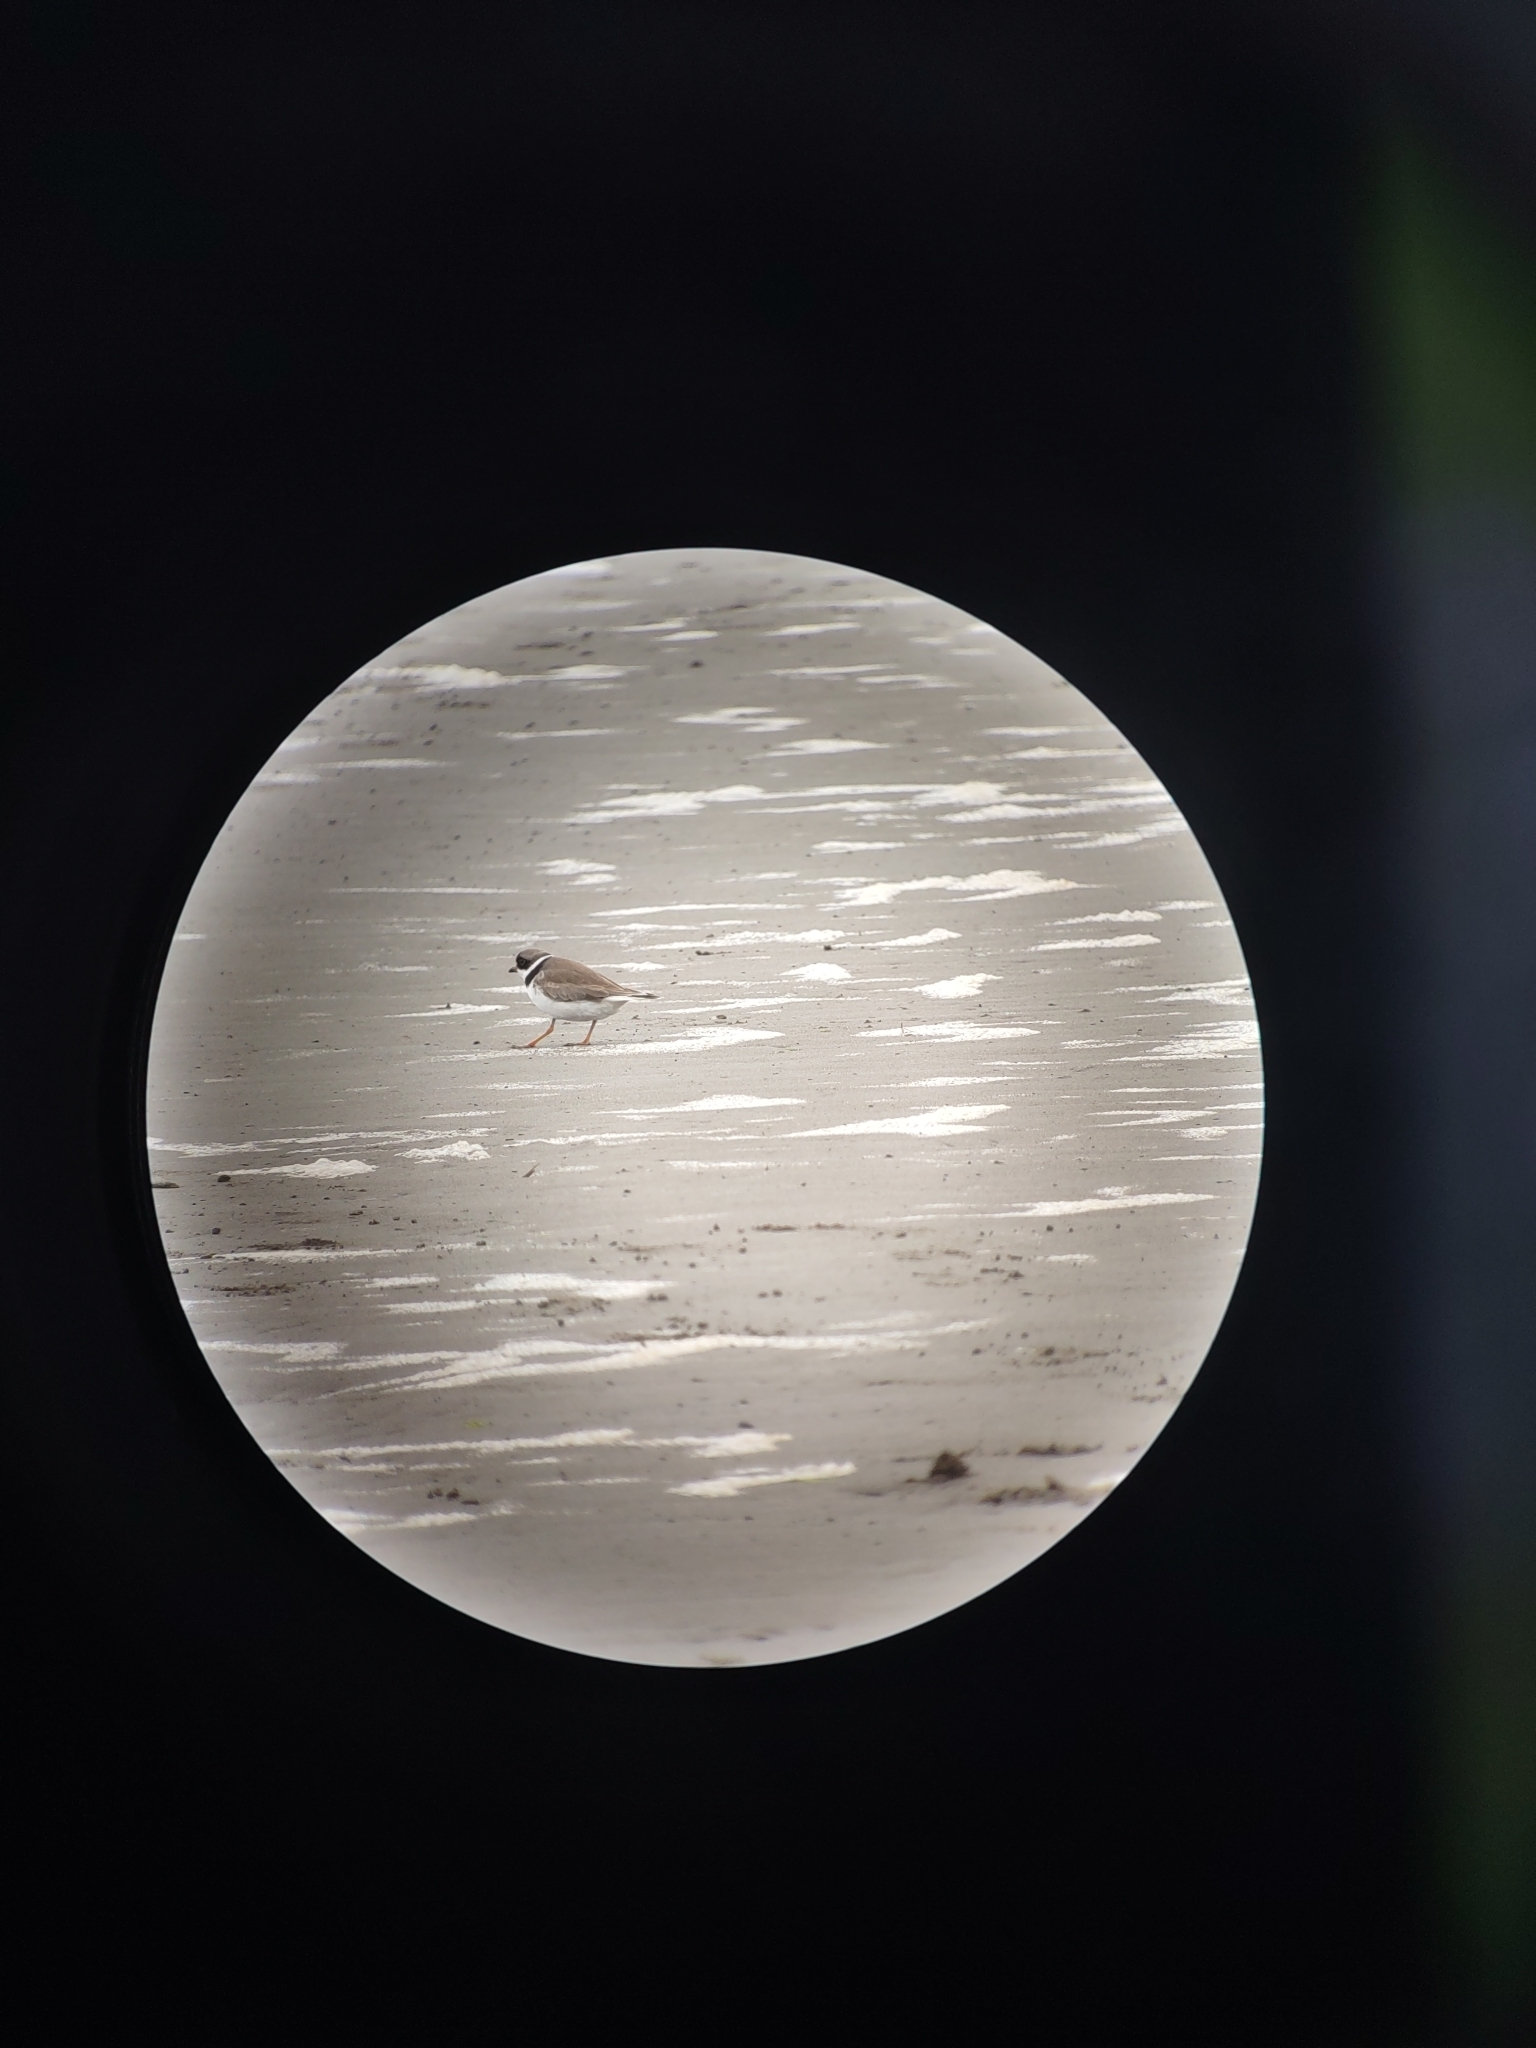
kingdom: Animalia
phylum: Chordata
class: Aves
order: Charadriiformes
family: Charadriidae
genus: Charadrius
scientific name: Charadrius semipalmatus
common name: Semipalmated plover
